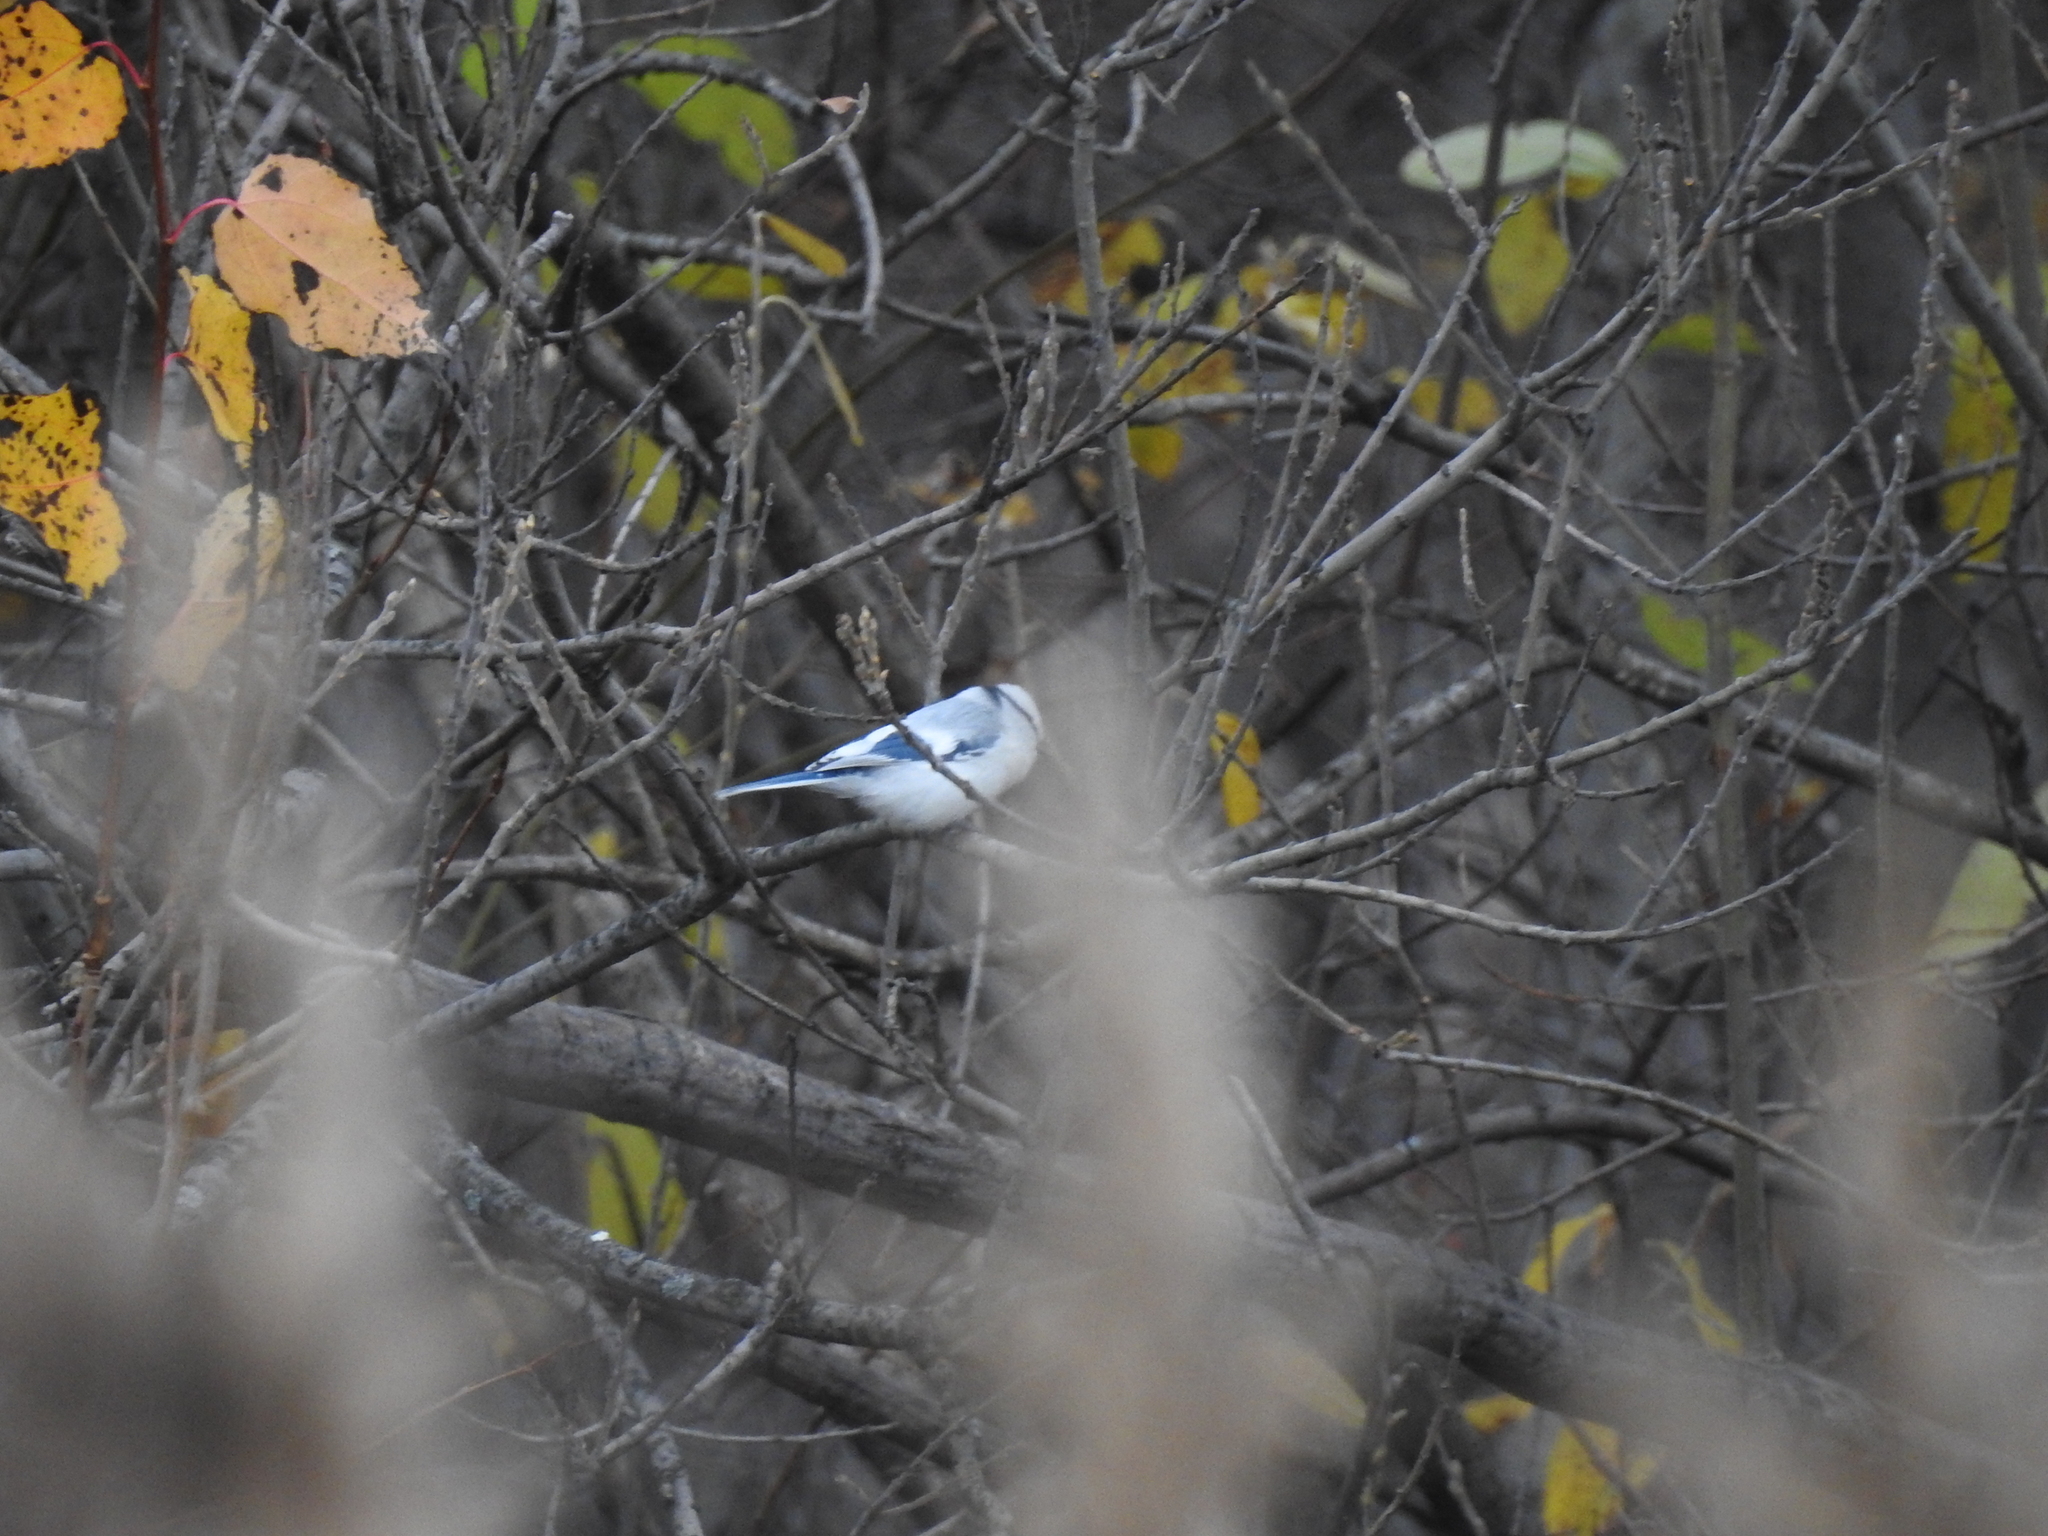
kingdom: Animalia
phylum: Chordata
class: Aves
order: Passeriformes
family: Paridae
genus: Cyanistes
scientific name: Cyanistes cyanus
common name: Azure tit
